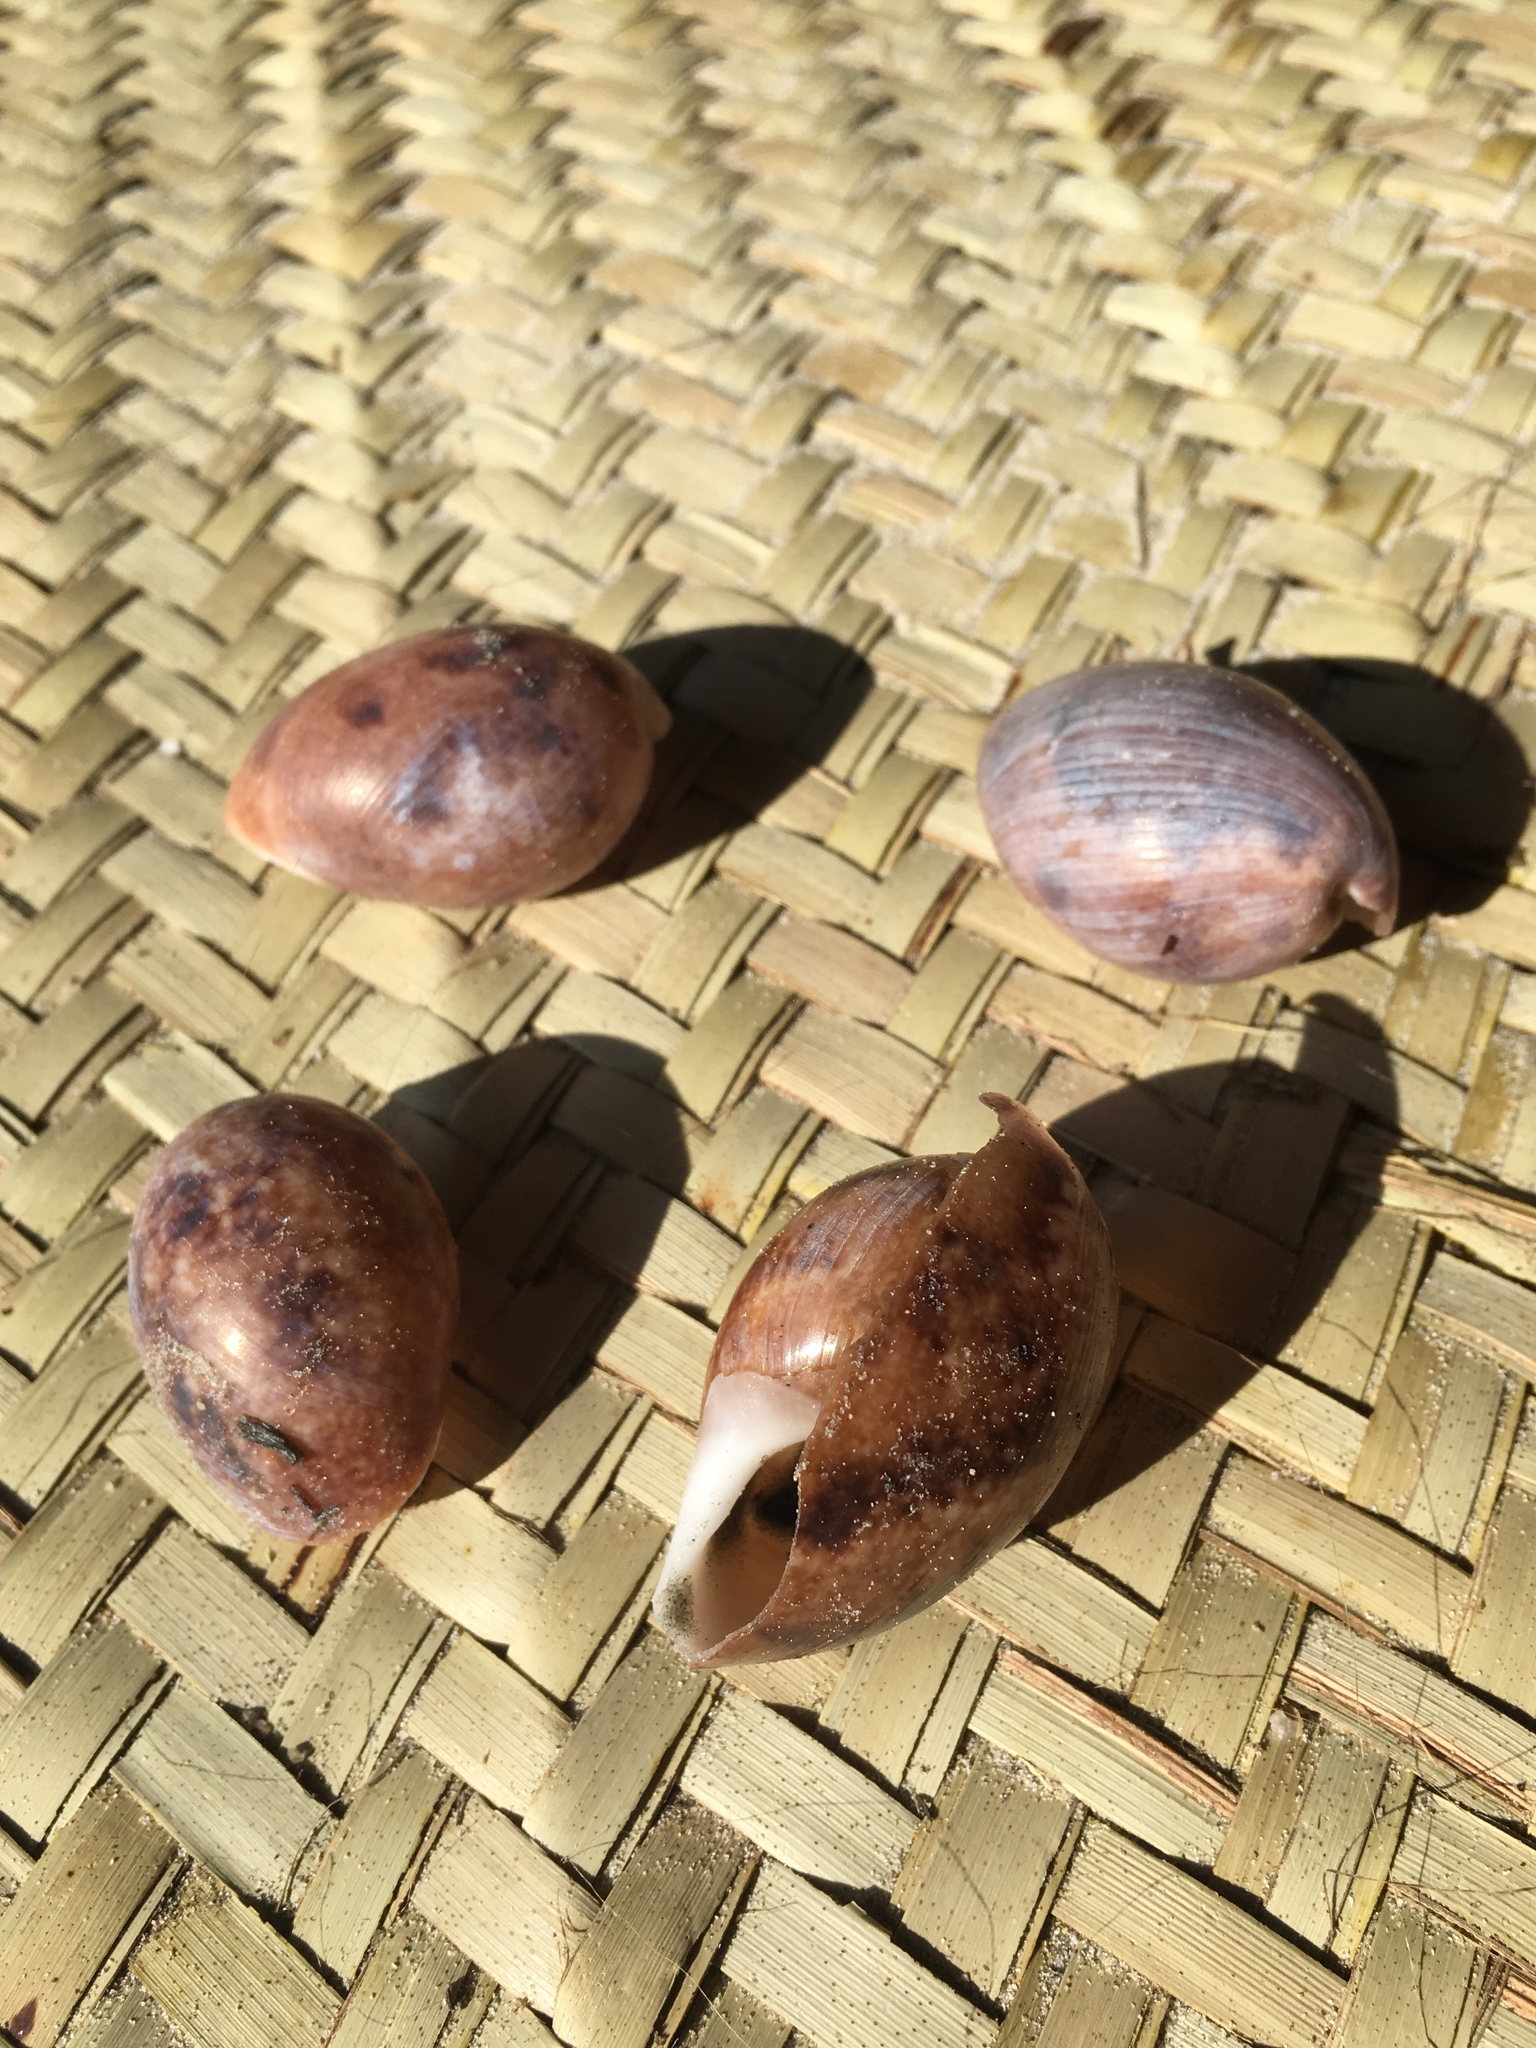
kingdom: Animalia
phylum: Mollusca
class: Gastropoda
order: Cephalaspidea
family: Bullidae
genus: Bulla
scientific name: Bulla ampulla
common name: Ampulle bubble
